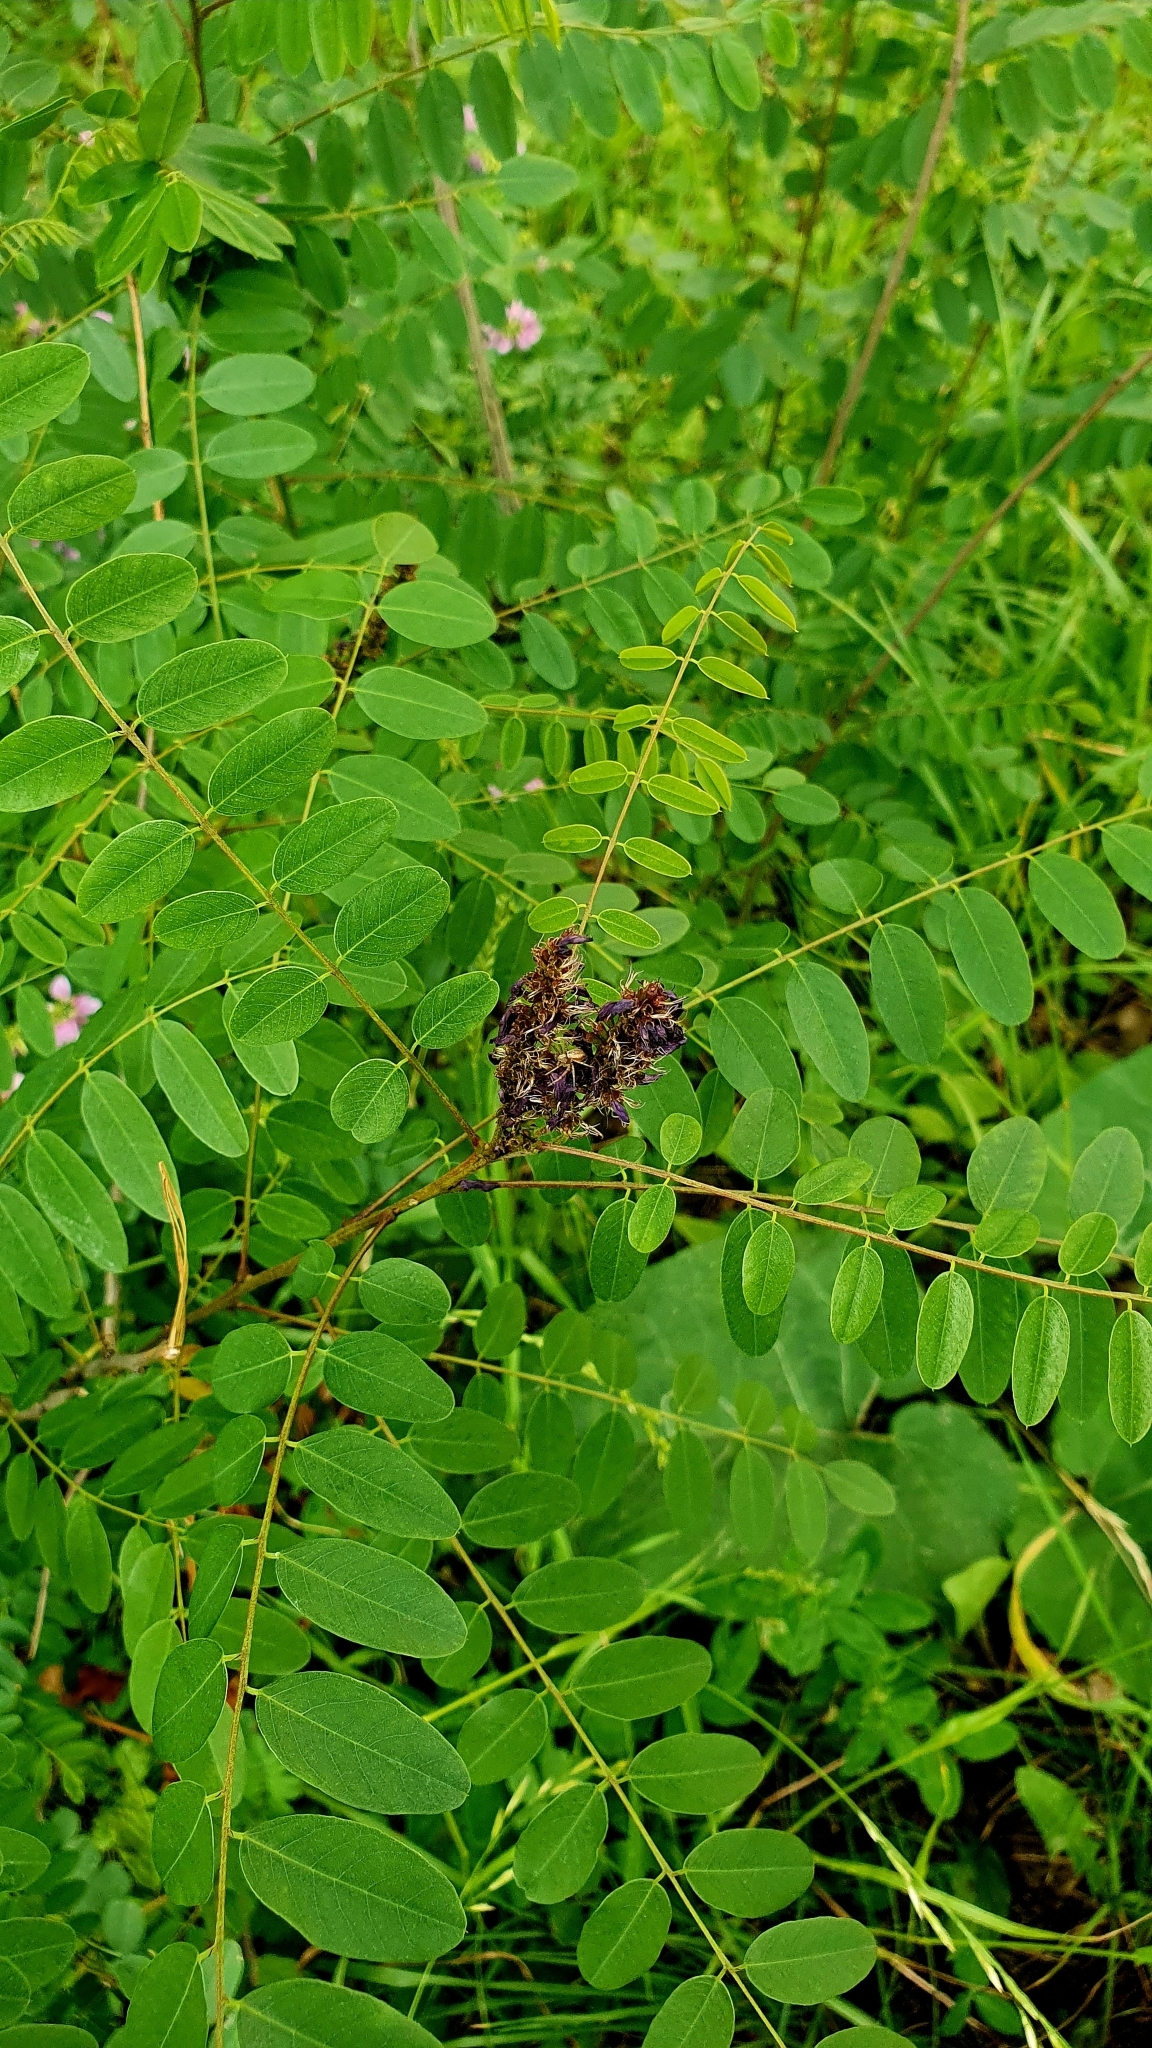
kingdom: Plantae
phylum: Tracheophyta
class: Magnoliopsida
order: Fabales
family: Fabaceae
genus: Amorpha
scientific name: Amorpha fruticosa
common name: False indigo
